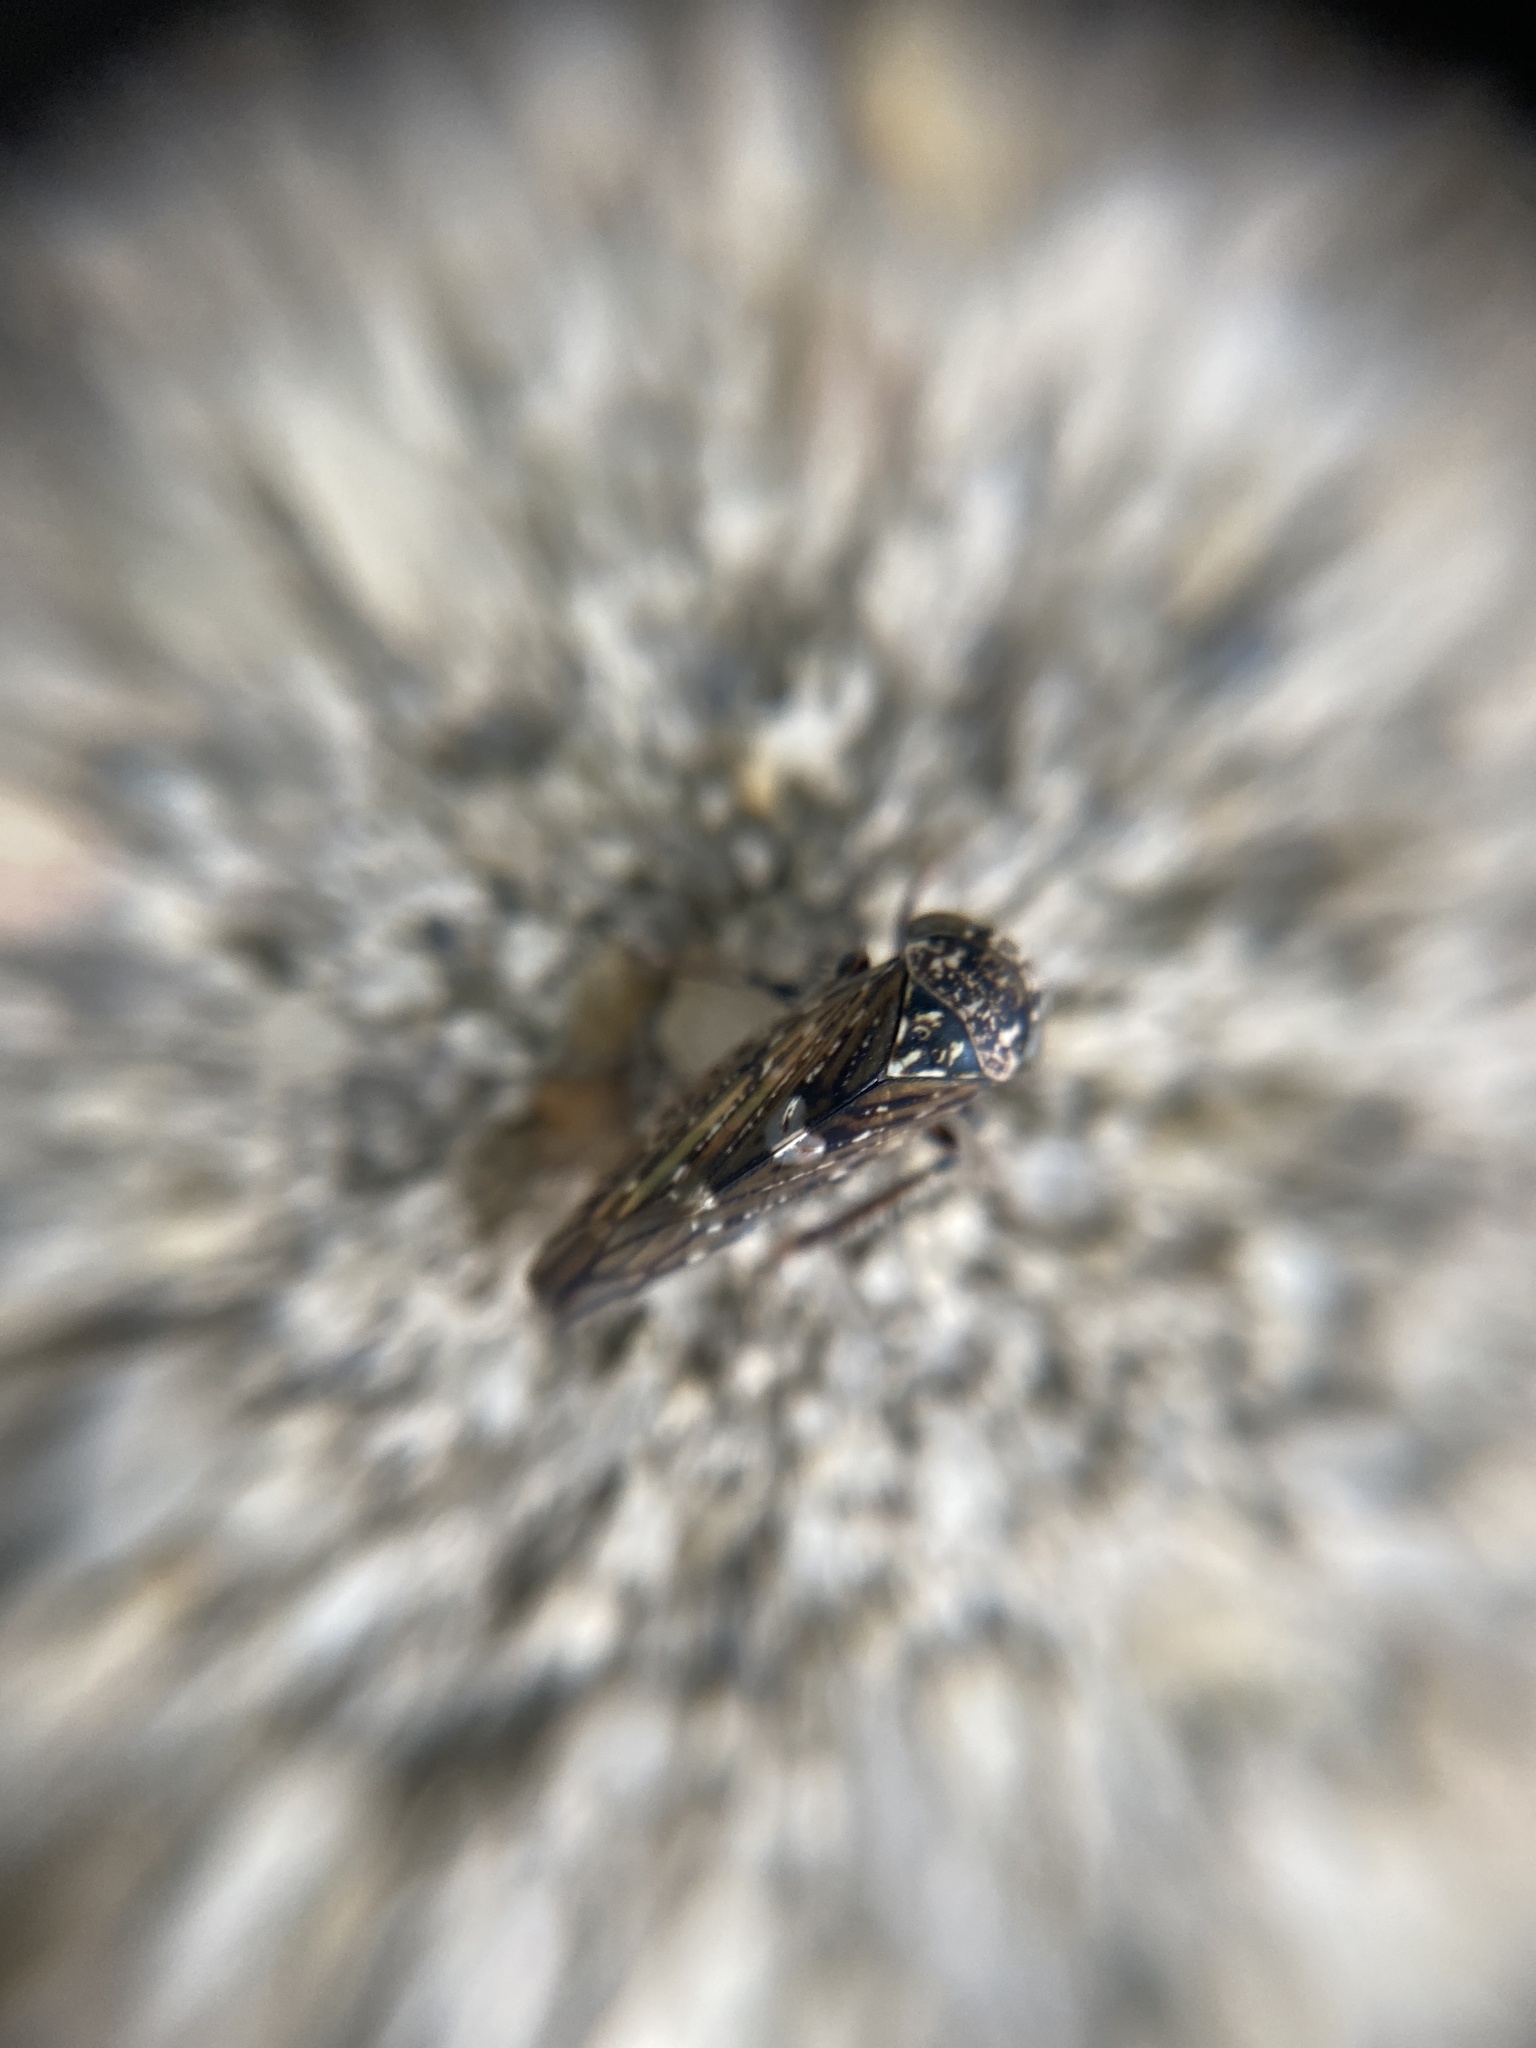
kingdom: Animalia
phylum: Arthropoda
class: Insecta
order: Hemiptera
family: Cicadellidae
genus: Acericerus
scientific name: Acericerus heydenii
